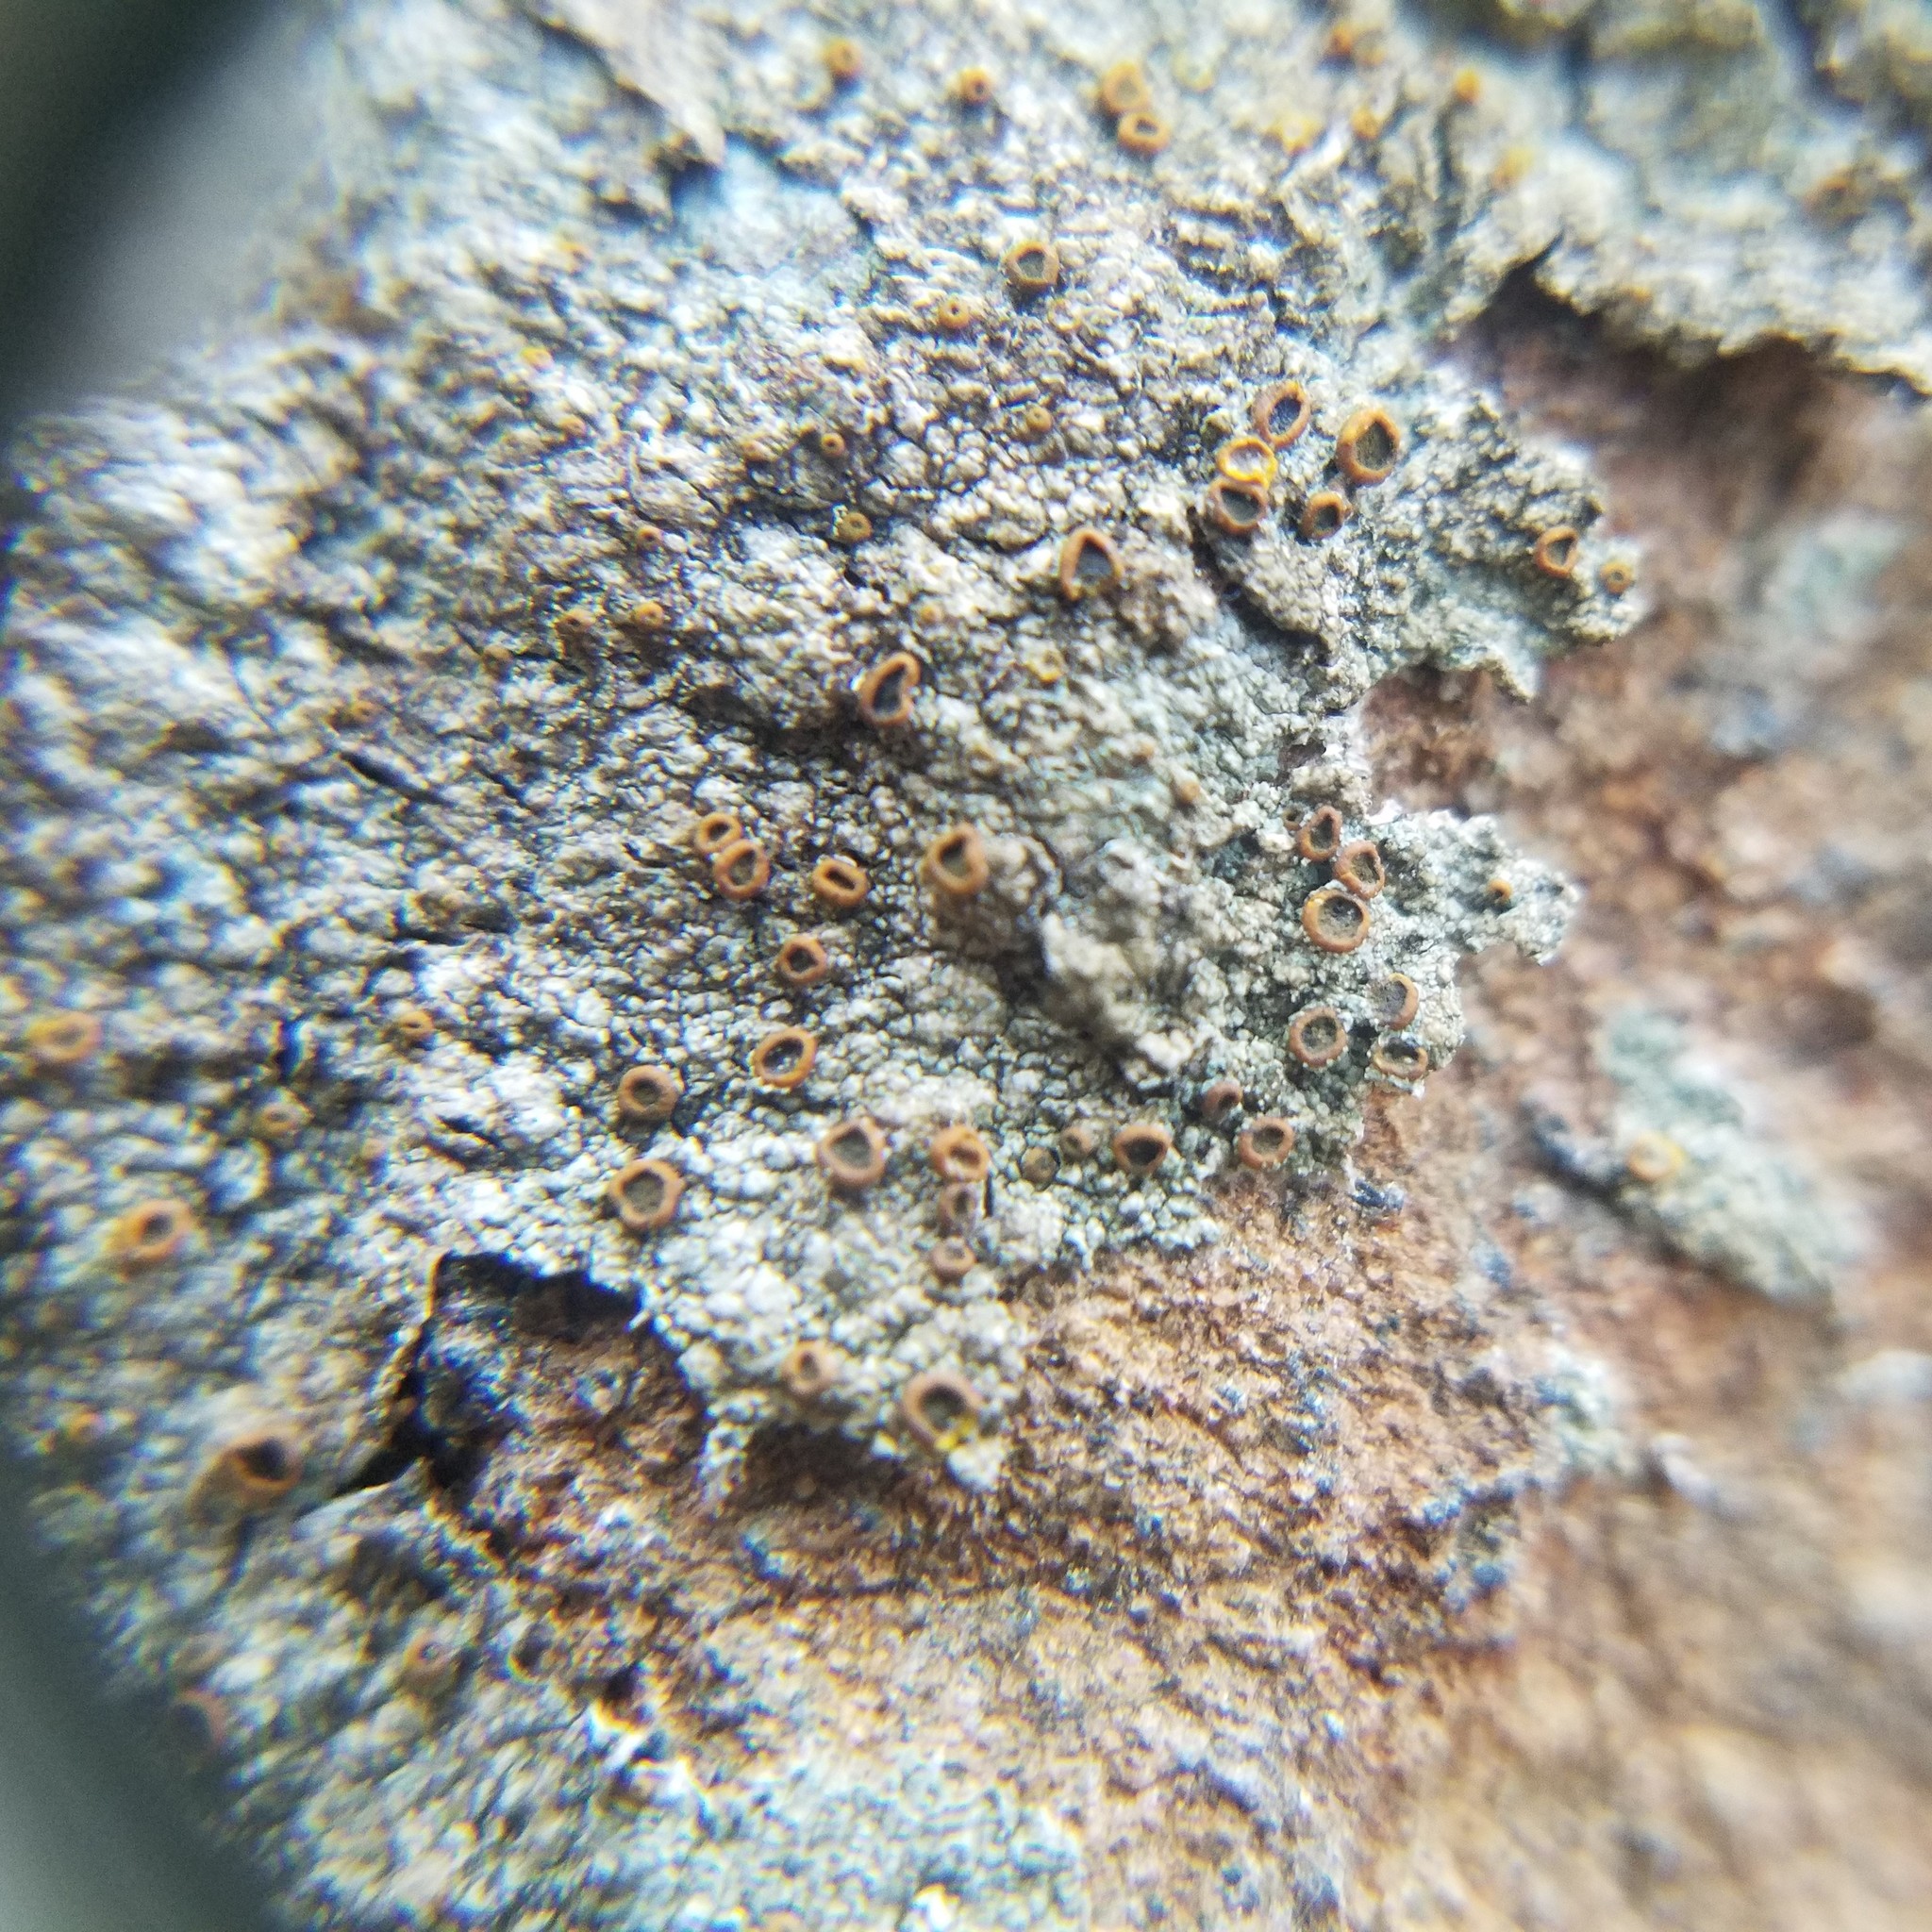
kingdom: Fungi
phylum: Ascomycota
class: Lecanoromycetes
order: Teloschistales
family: Brigantiaeaceae
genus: Brigantiaea
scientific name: Brigantiaea leucoxantha
